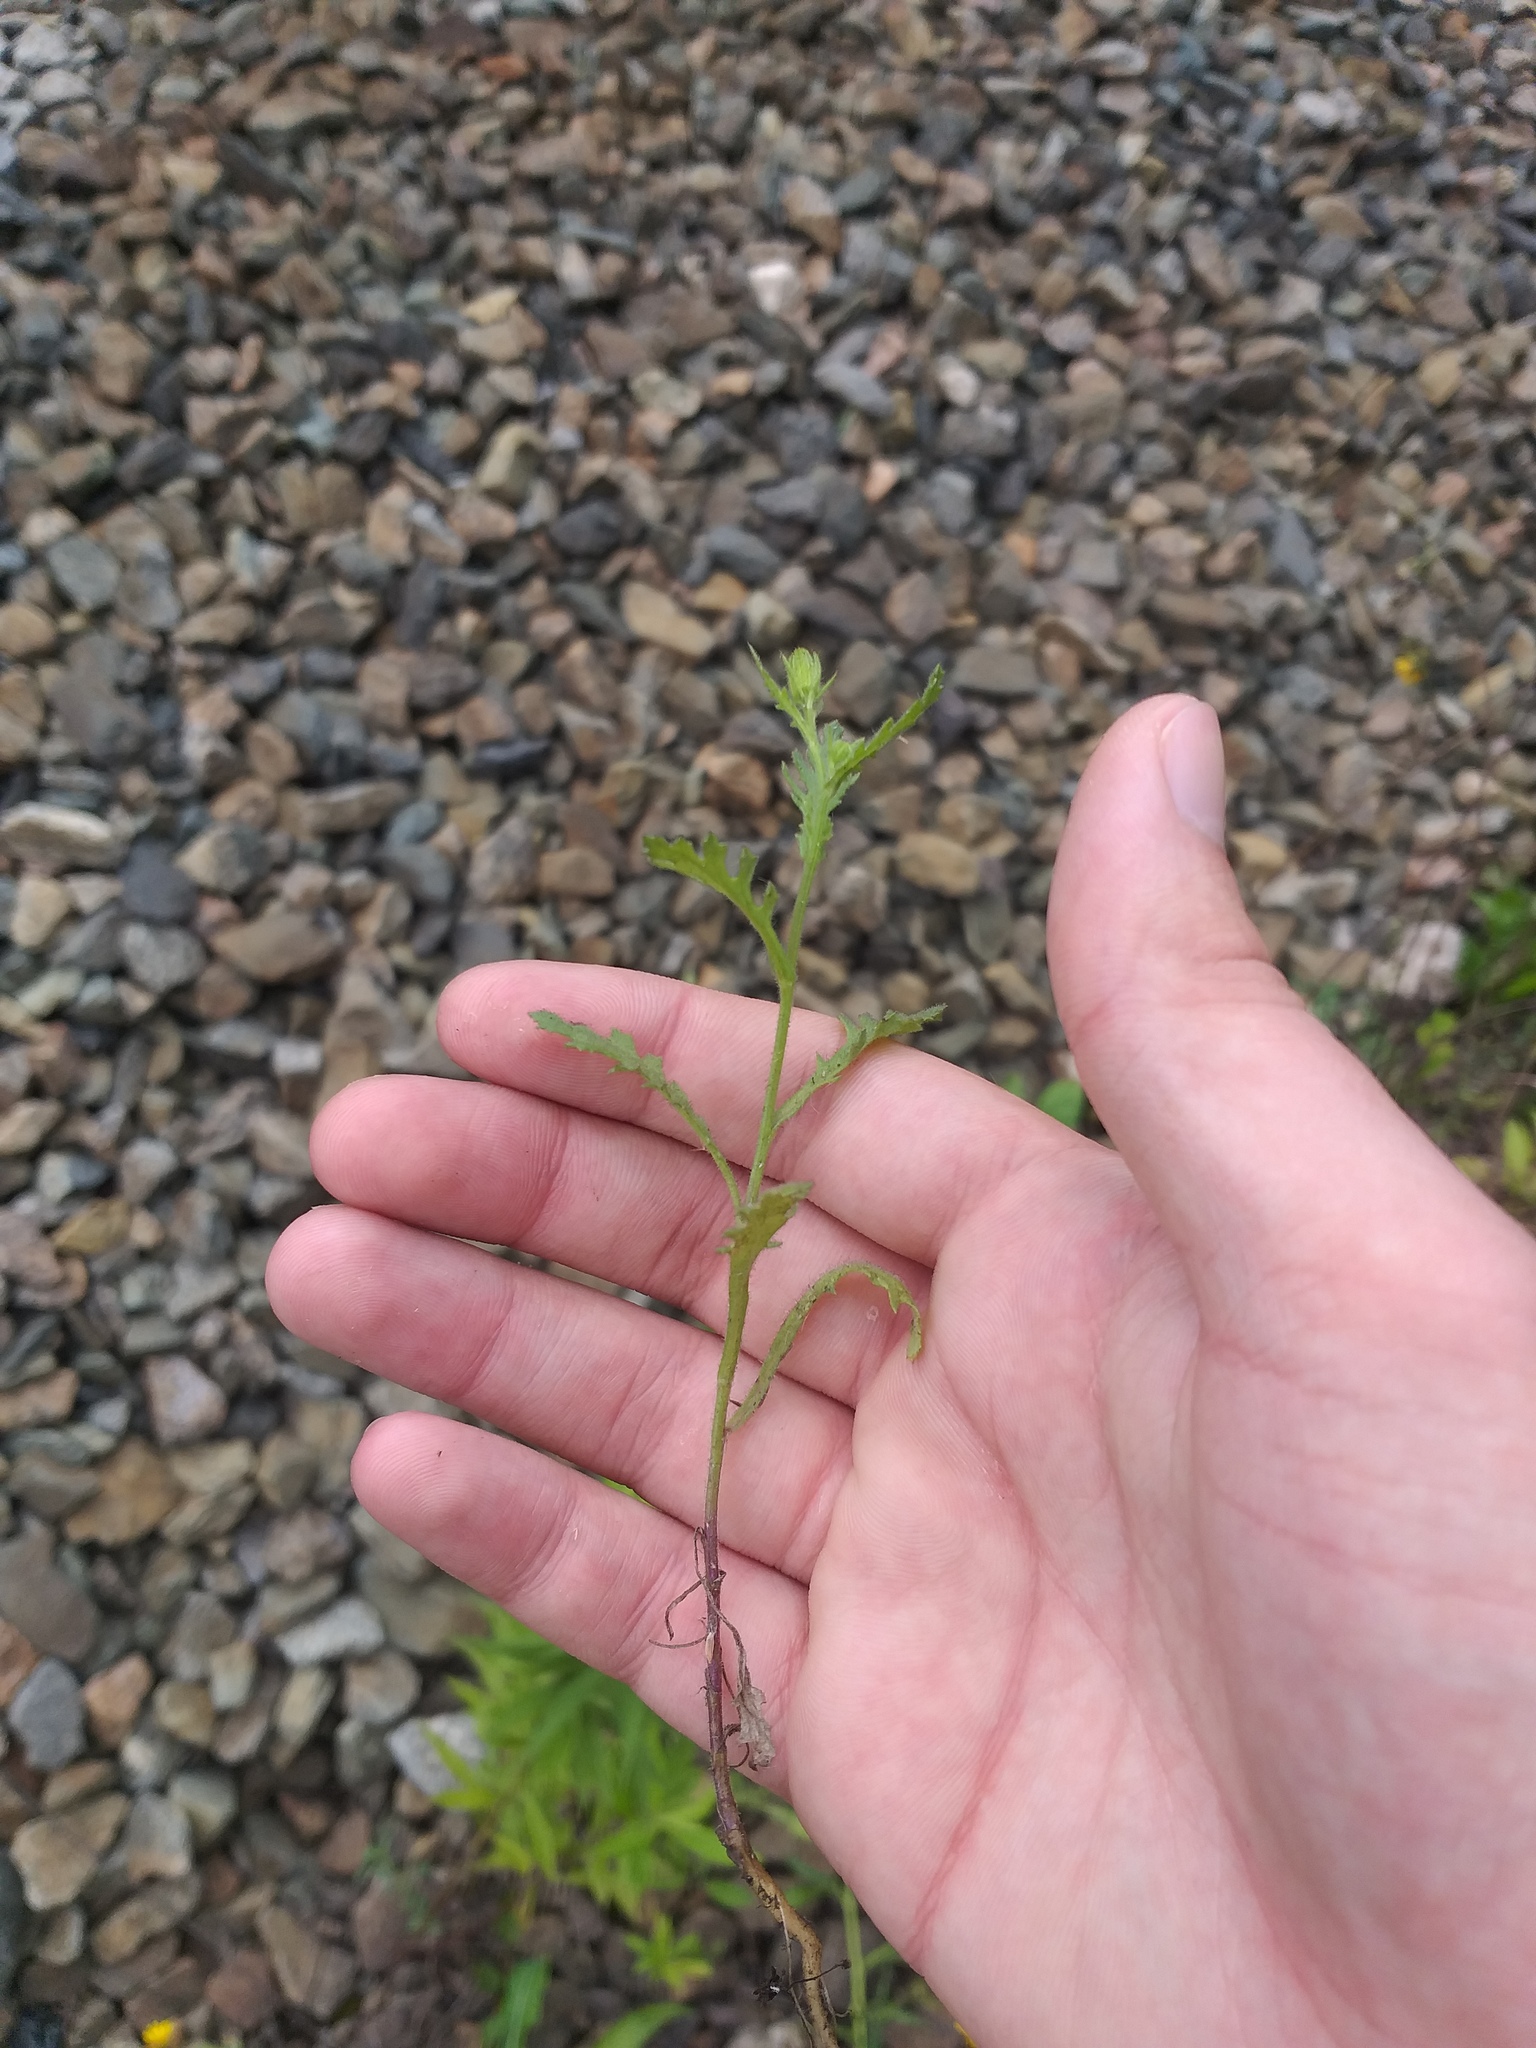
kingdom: Plantae
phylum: Tracheophyta
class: Magnoliopsida
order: Asterales
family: Asteraceae
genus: Senecio
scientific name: Senecio viscosus
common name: Sticky groundsel
